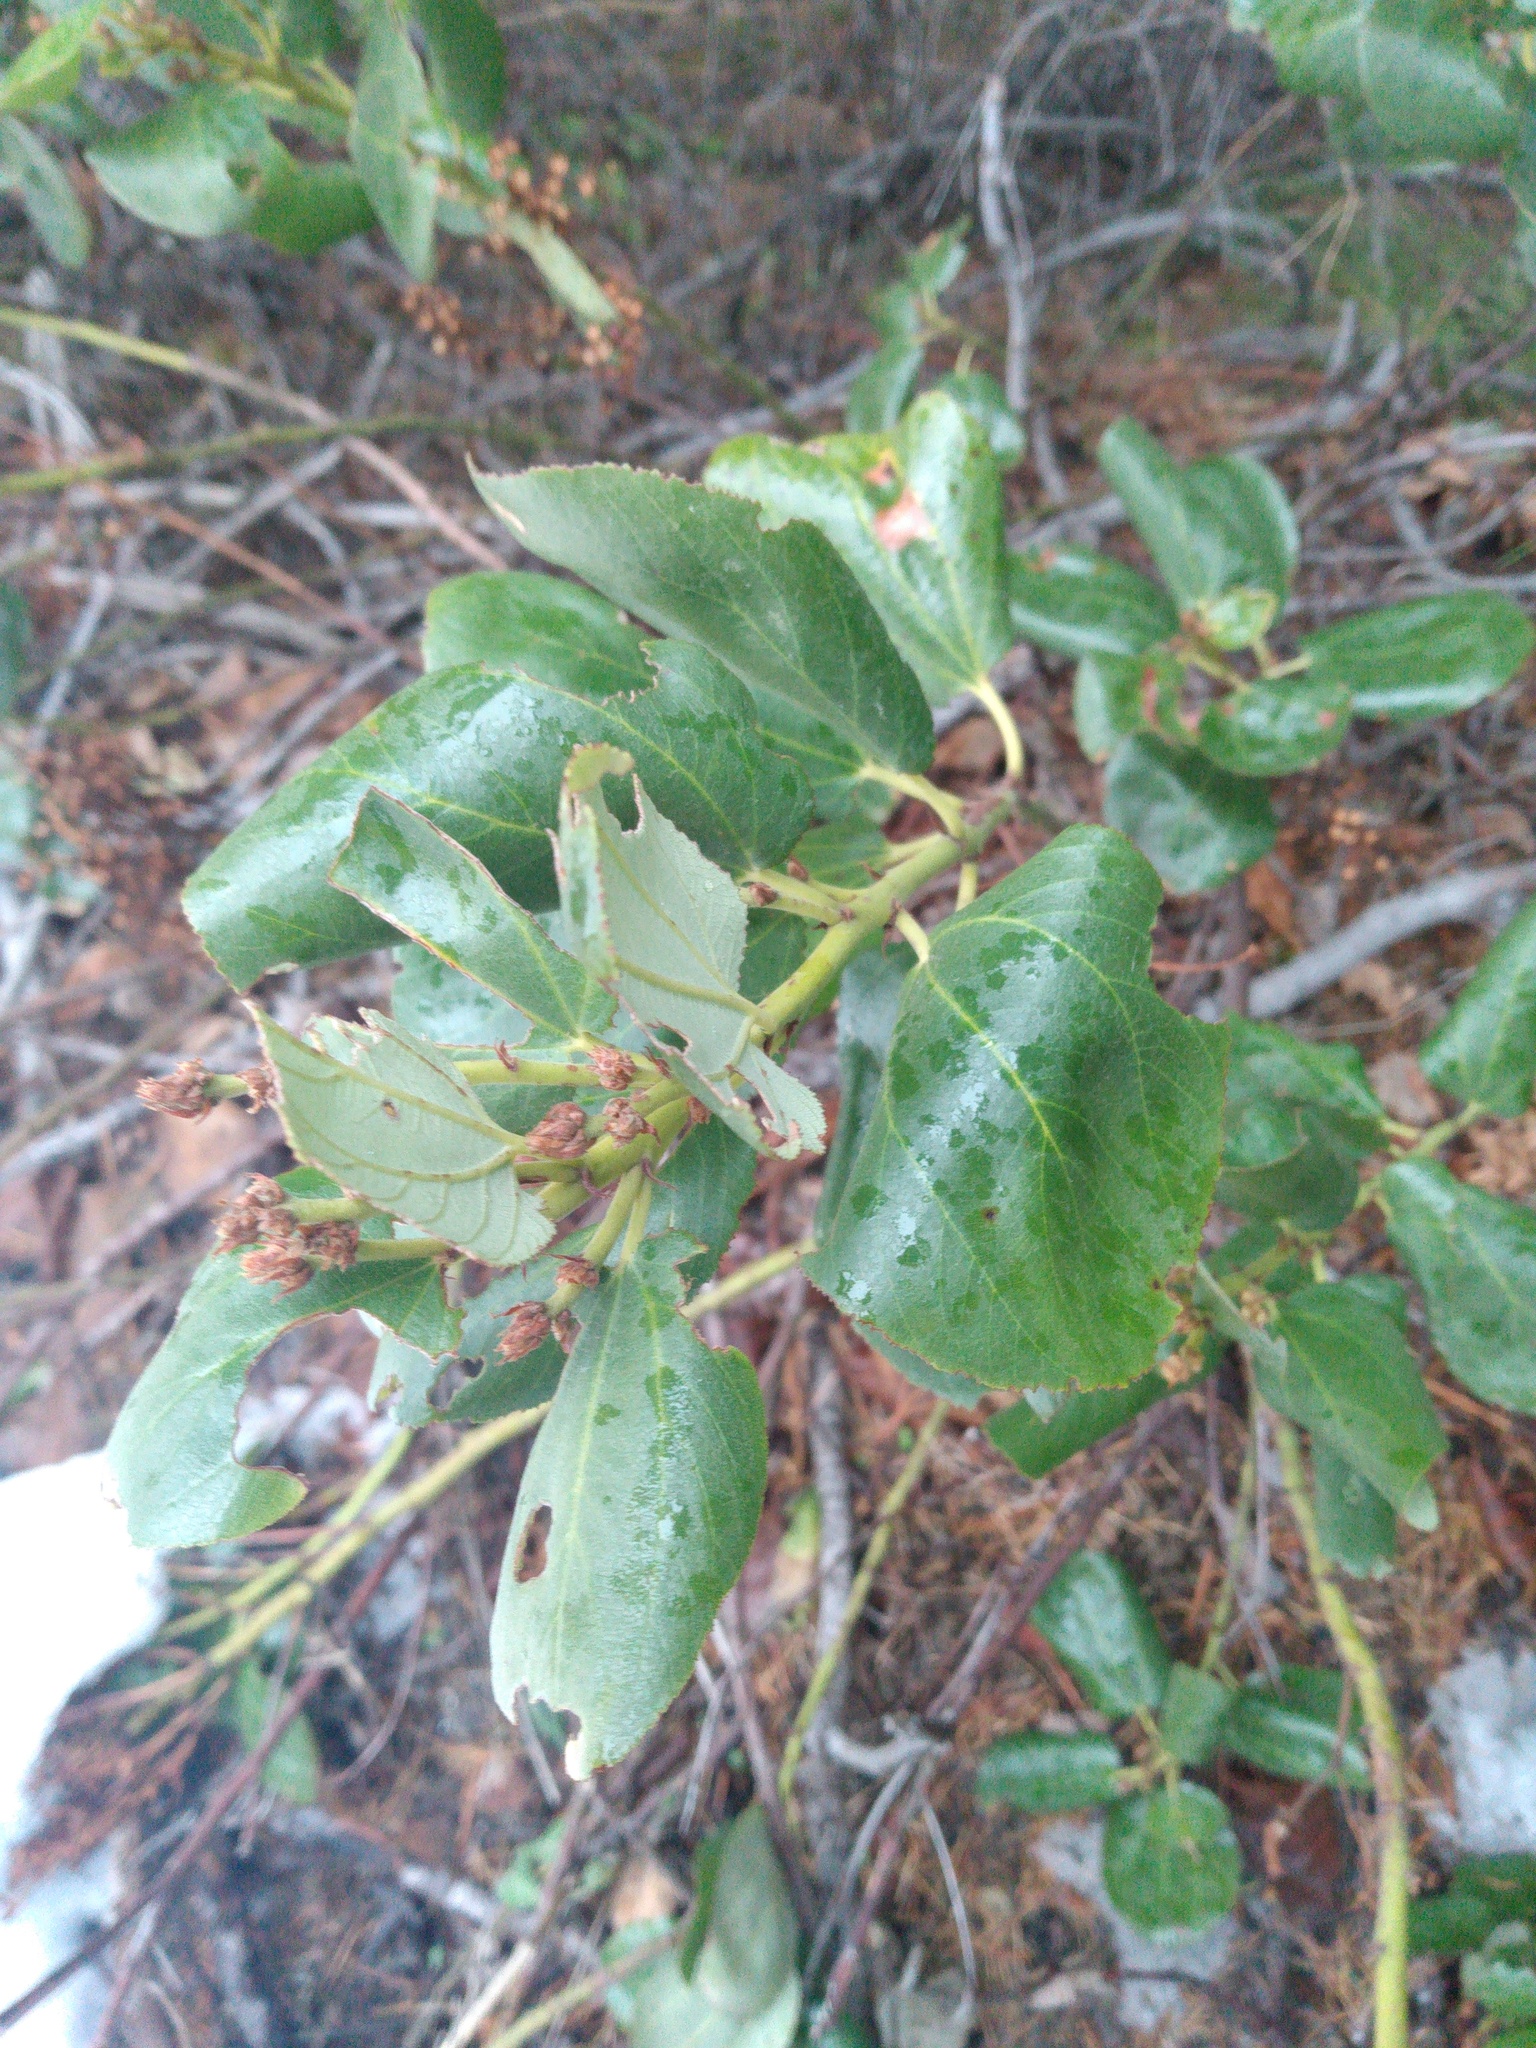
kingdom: Plantae
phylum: Tracheophyta
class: Magnoliopsida
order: Rosales
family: Rhamnaceae
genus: Ceanothus
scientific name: Ceanothus velutinus
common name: Snowbrush
